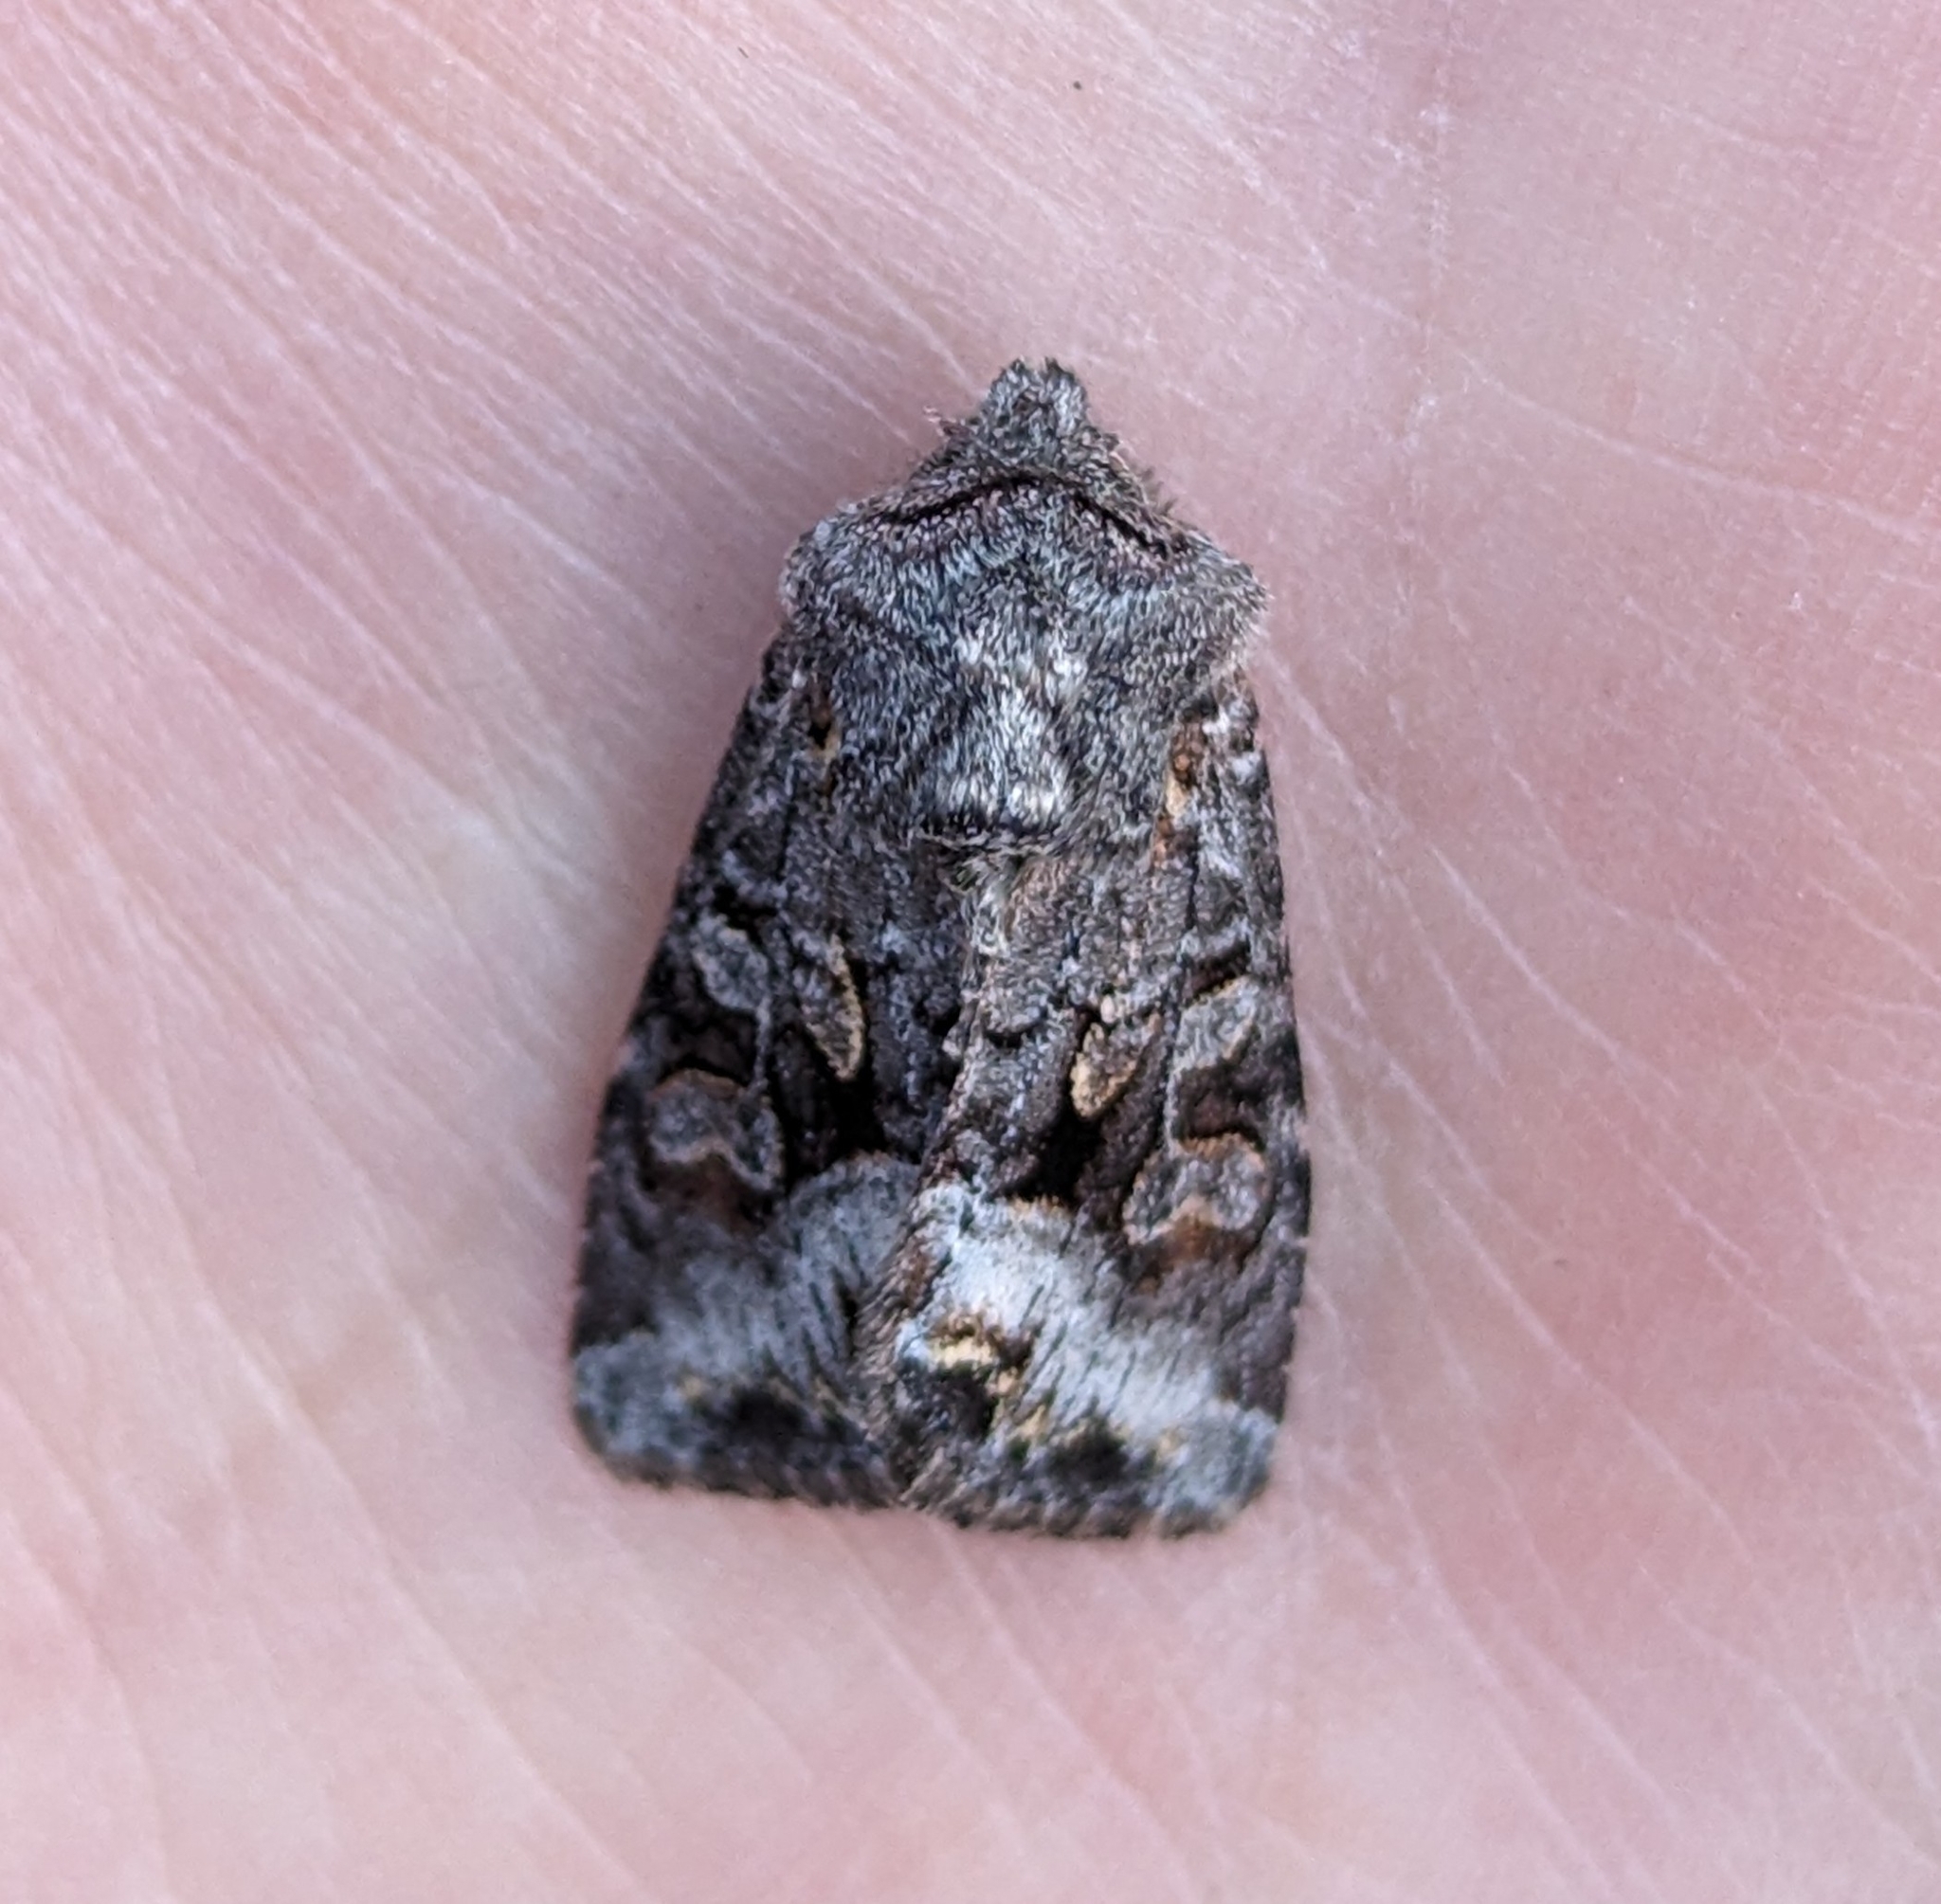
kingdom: Animalia
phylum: Arthropoda
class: Insecta
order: Lepidoptera
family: Noctuidae
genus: Papestra
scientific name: Papestra quadrata
